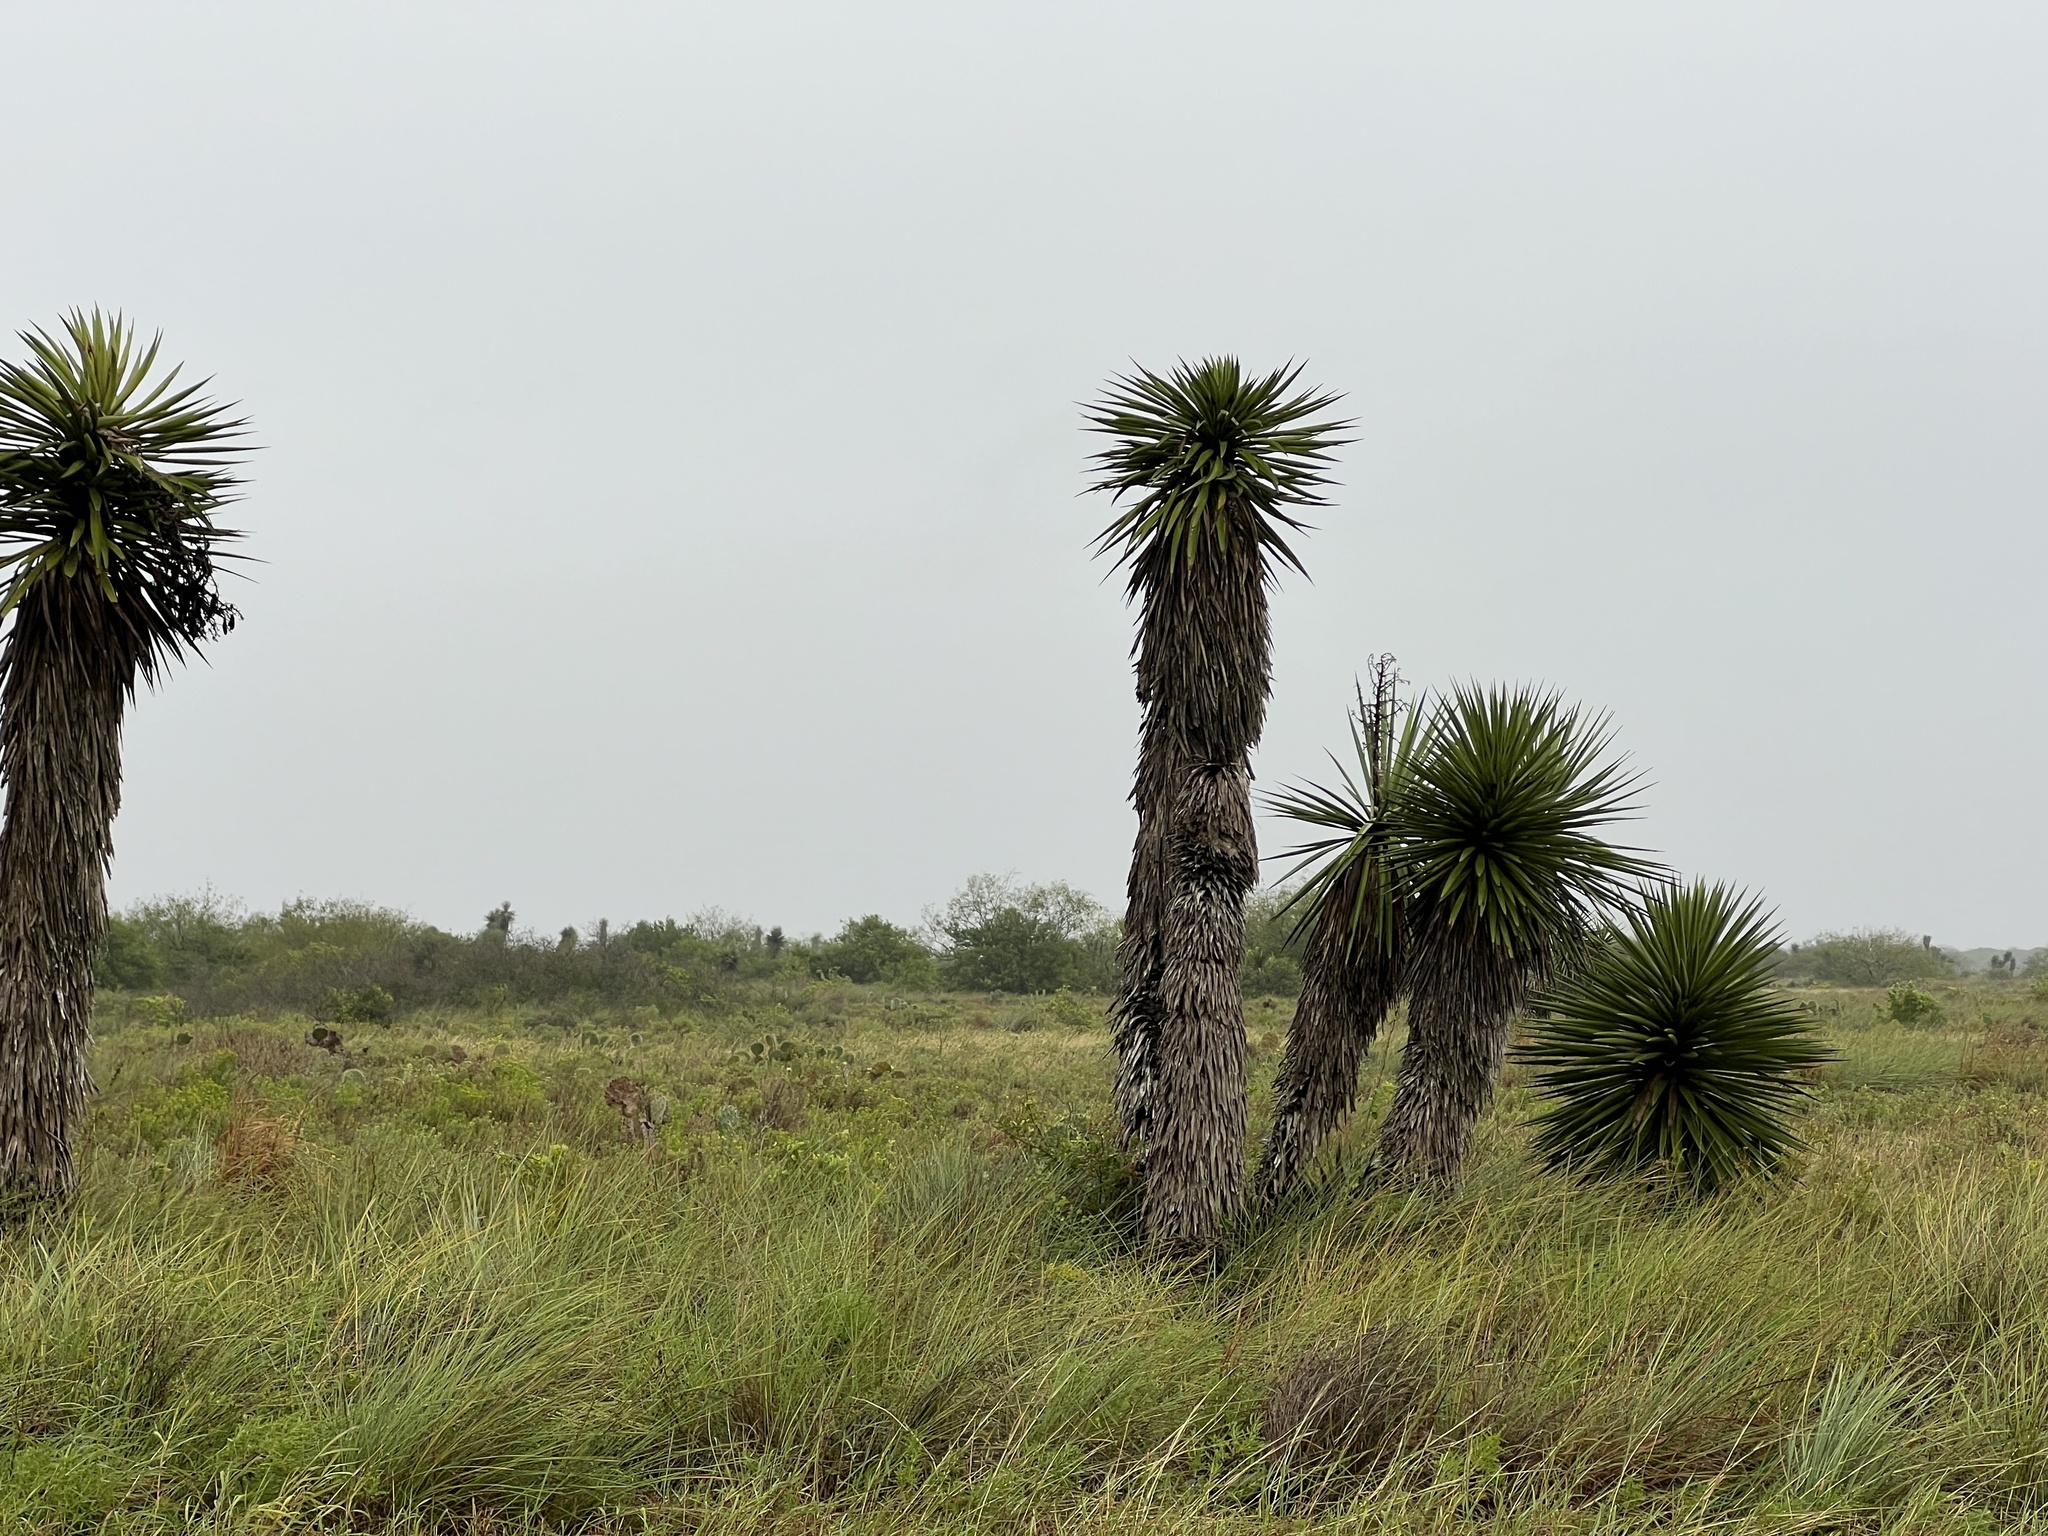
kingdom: Plantae
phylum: Tracheophyta
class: Liliopsida
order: Asparagales
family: Asparagaceae
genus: Yucca
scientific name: Yucca treculiana
